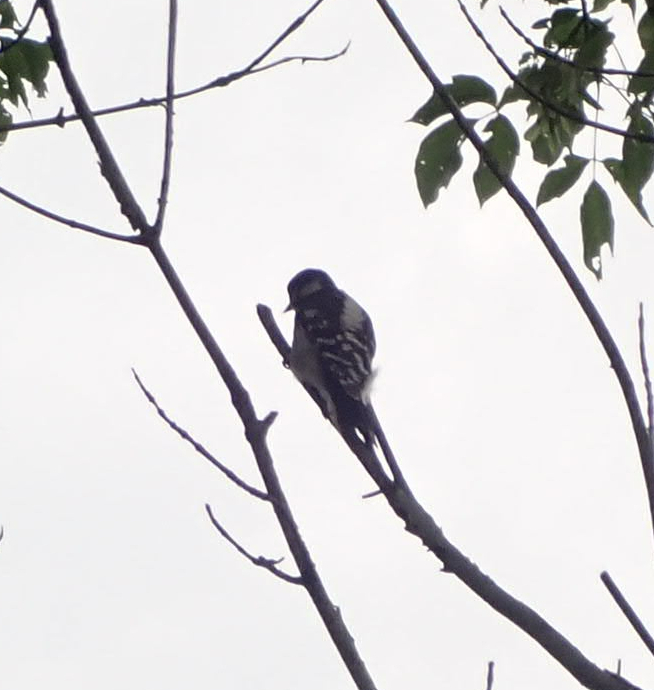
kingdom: Animalia
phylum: Chordata
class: Aves
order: Piciformes
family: Picidae
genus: Dryobates
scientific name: Dryobates pubescens
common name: Downy woodpecker
